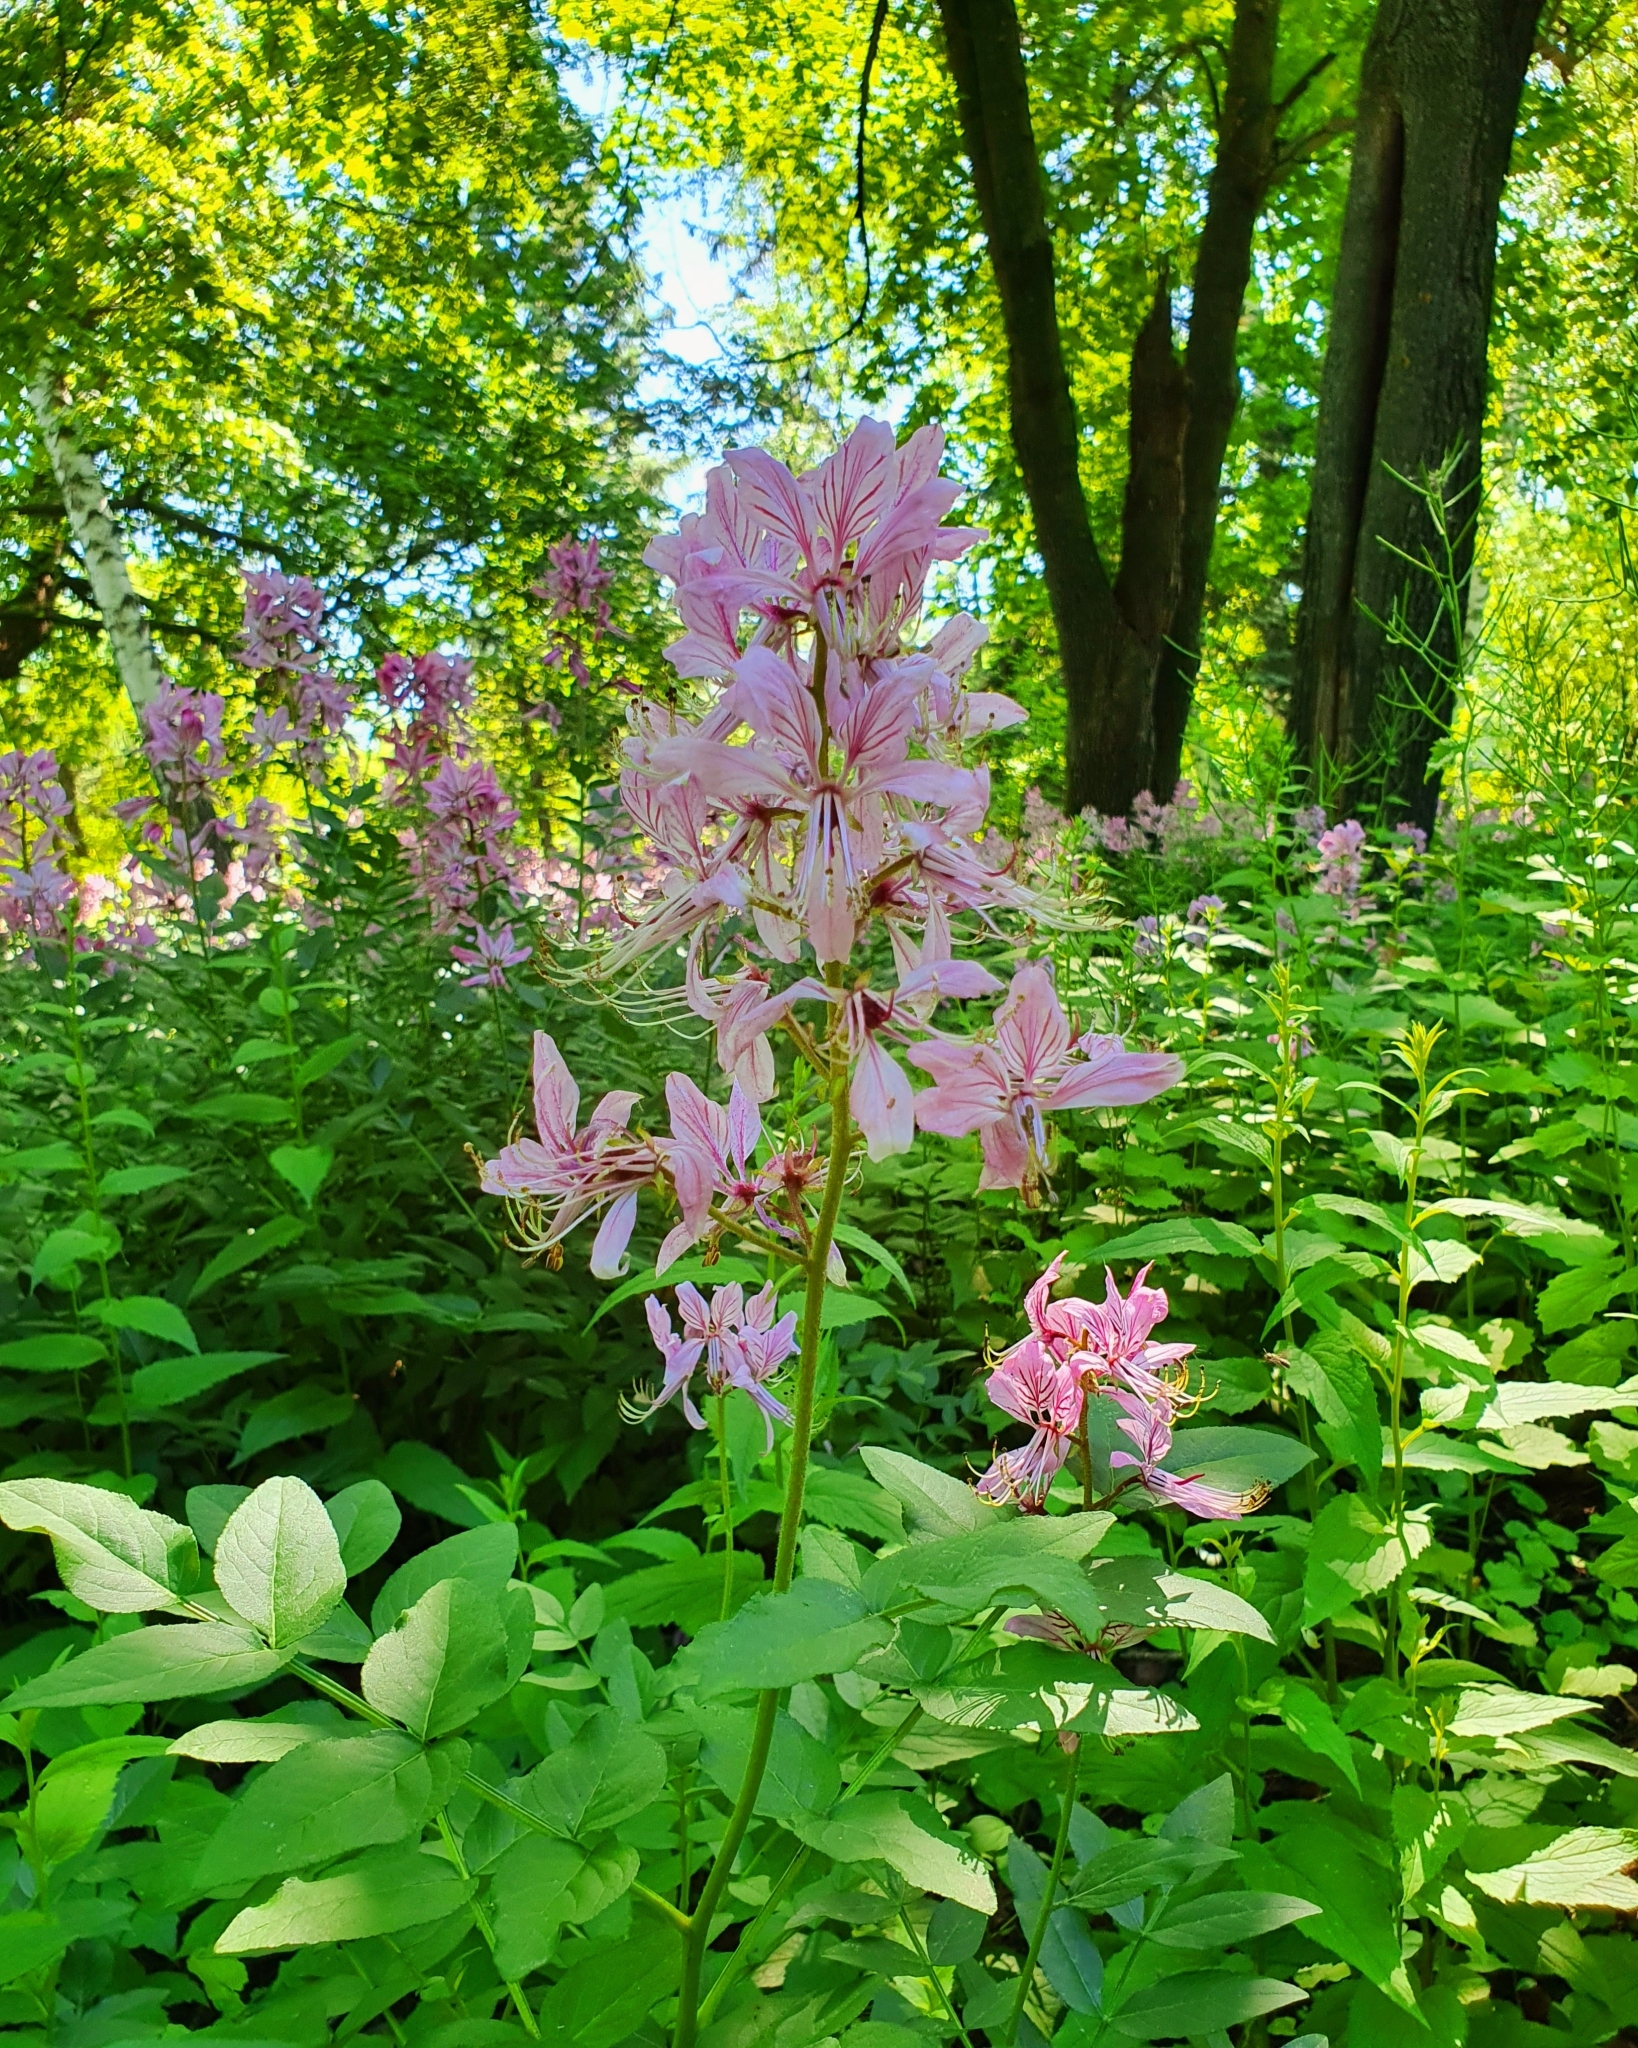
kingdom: Plantae
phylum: Tracheophyta
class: Magnoliopsida
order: Sapindales
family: Rutaceae
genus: Dictamnus
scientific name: Dictamnus albus
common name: Gasplant
